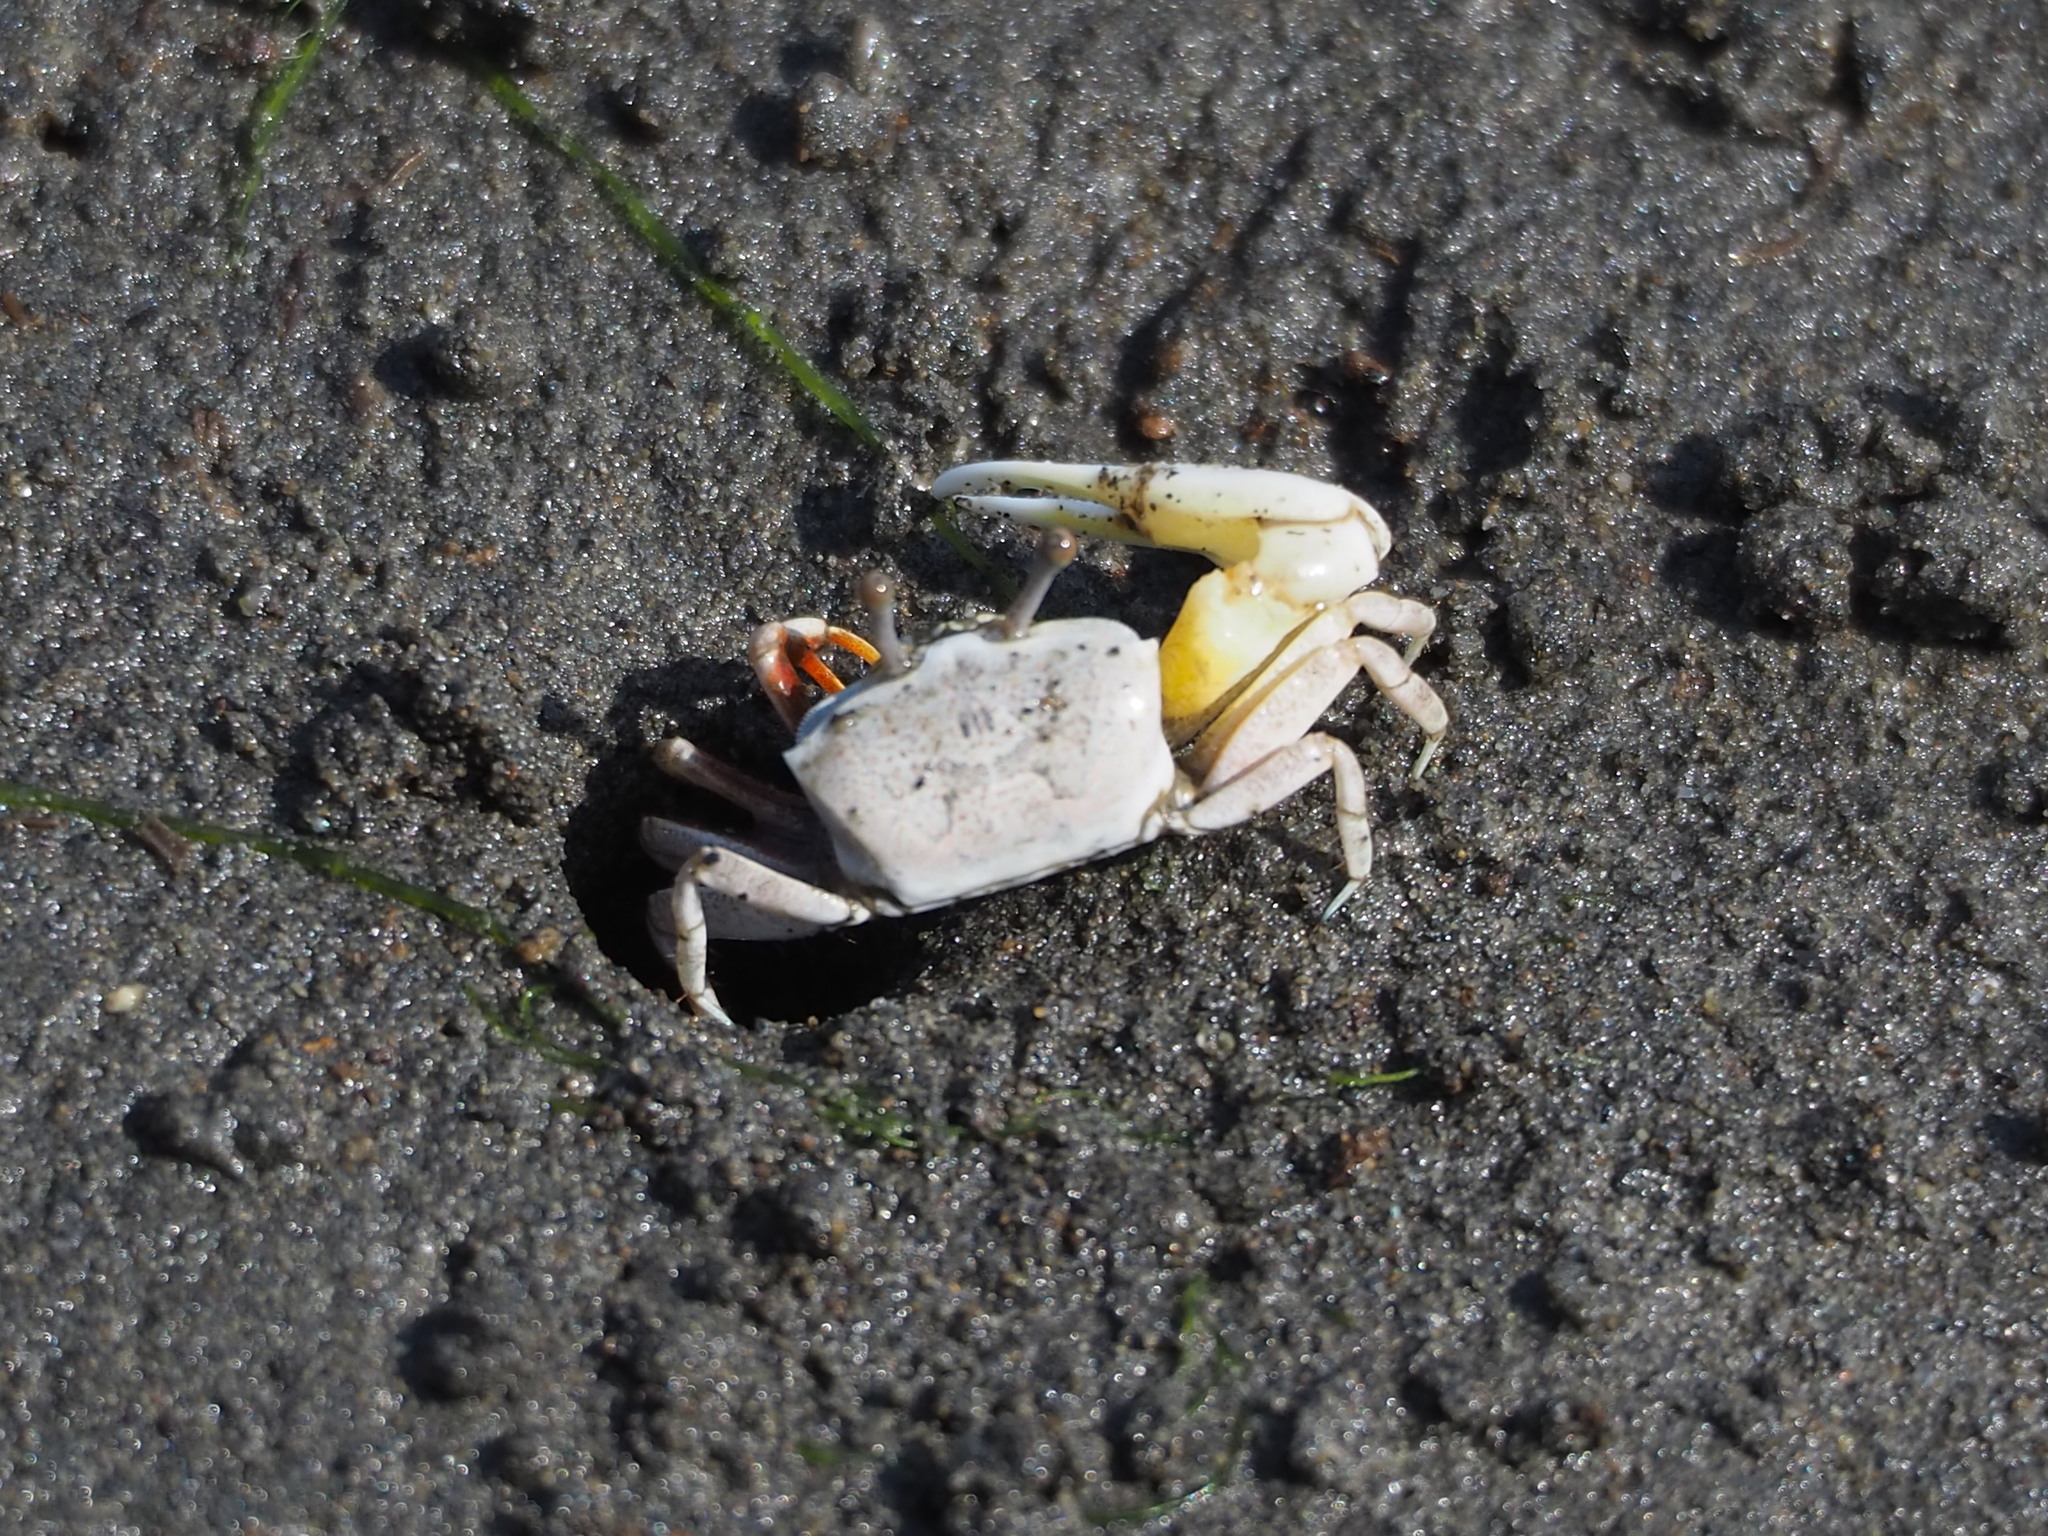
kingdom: Animalia
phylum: Arthropoda
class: Malacostraca
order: Decapoda
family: Ocypodidae
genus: Austruca
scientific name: Austruca lactea
